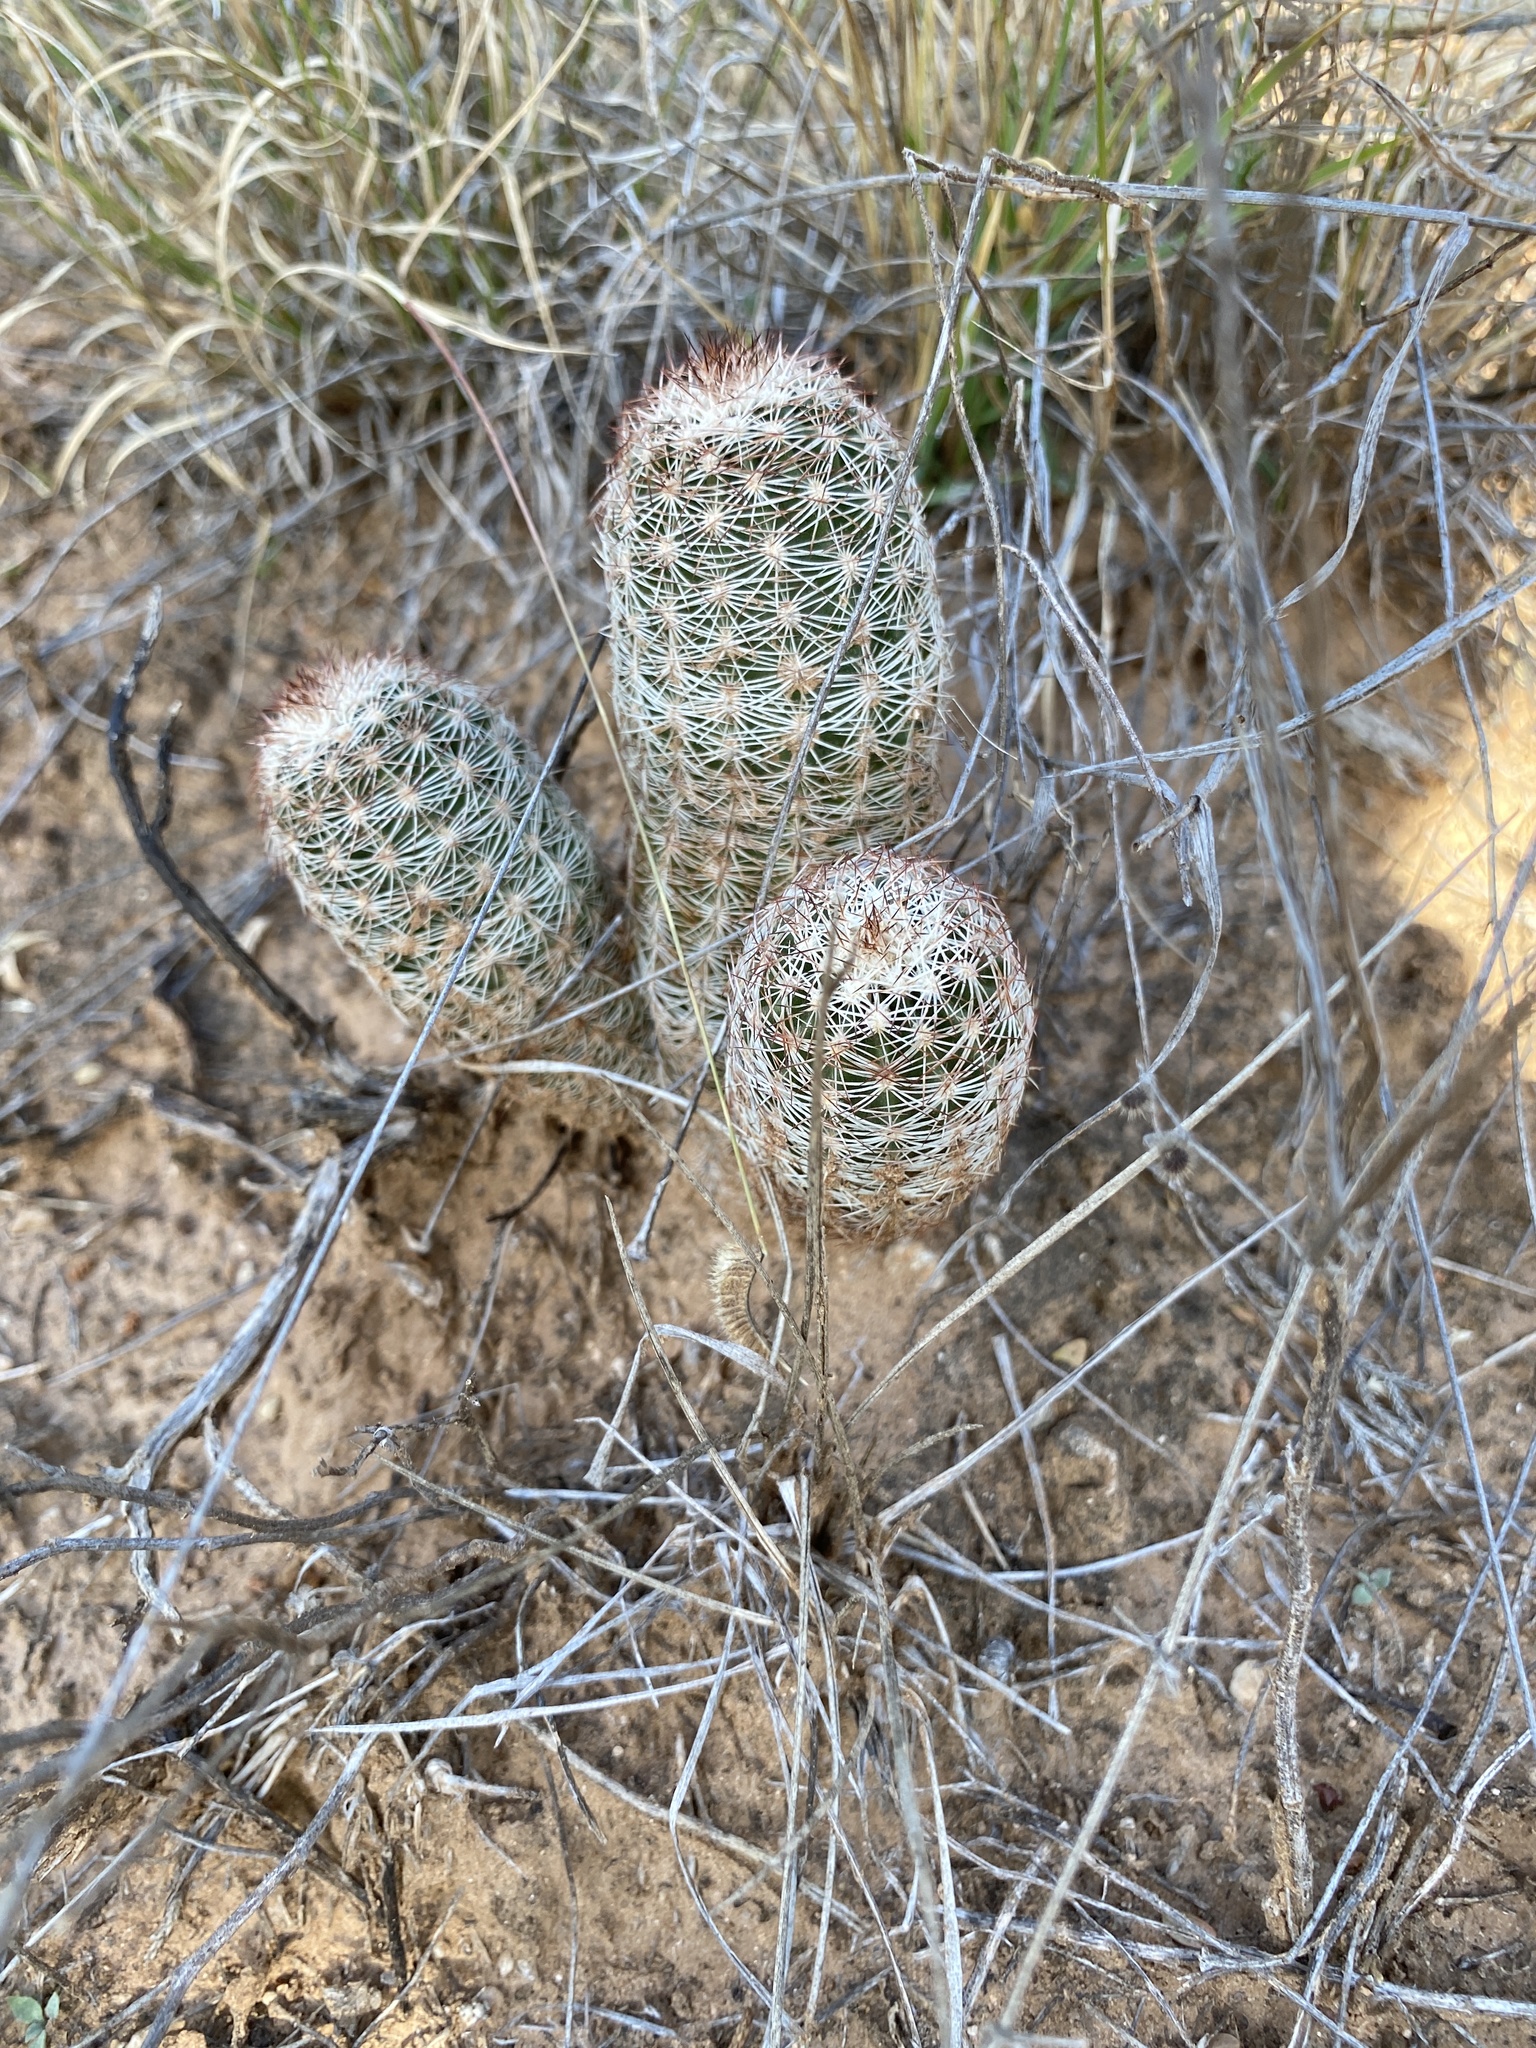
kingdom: Plantae
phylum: Tracheophyta
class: Magnoliopsida
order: Caryophyllales
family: Cactaceae
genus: Echinocereus
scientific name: Echinocereus reichenbachii
